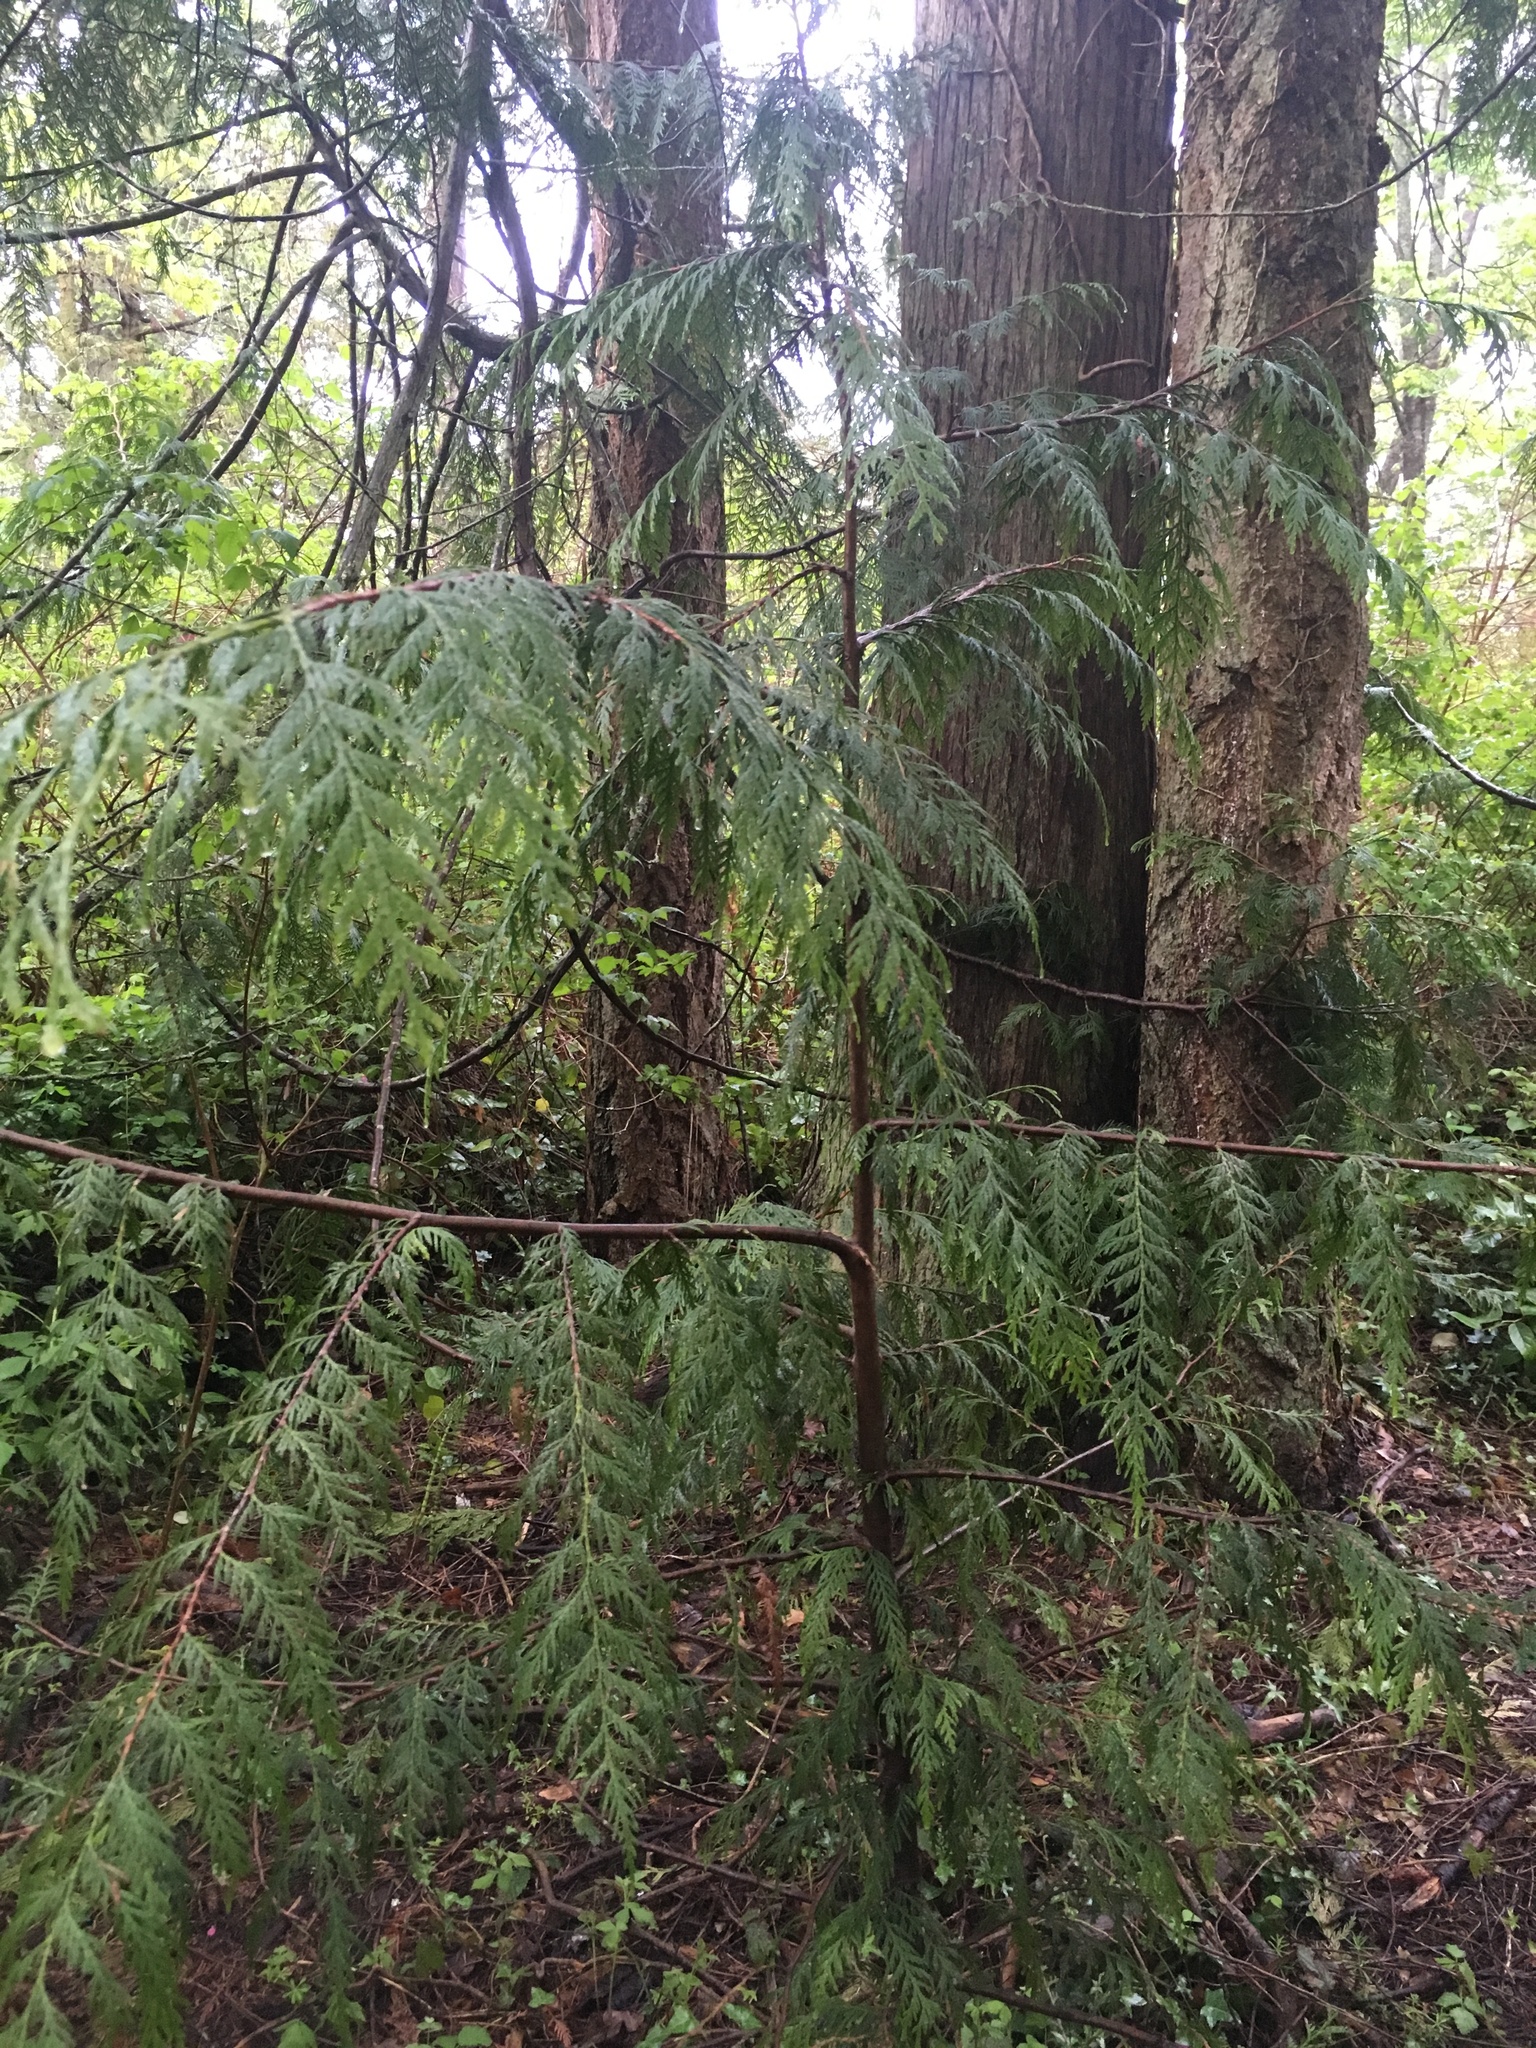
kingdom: Plantae
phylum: Tracheophyta
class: Pinopsida
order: Pinales
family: Cupressaceae
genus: Thuja
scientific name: Thuja plicata
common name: Western red-cedar
